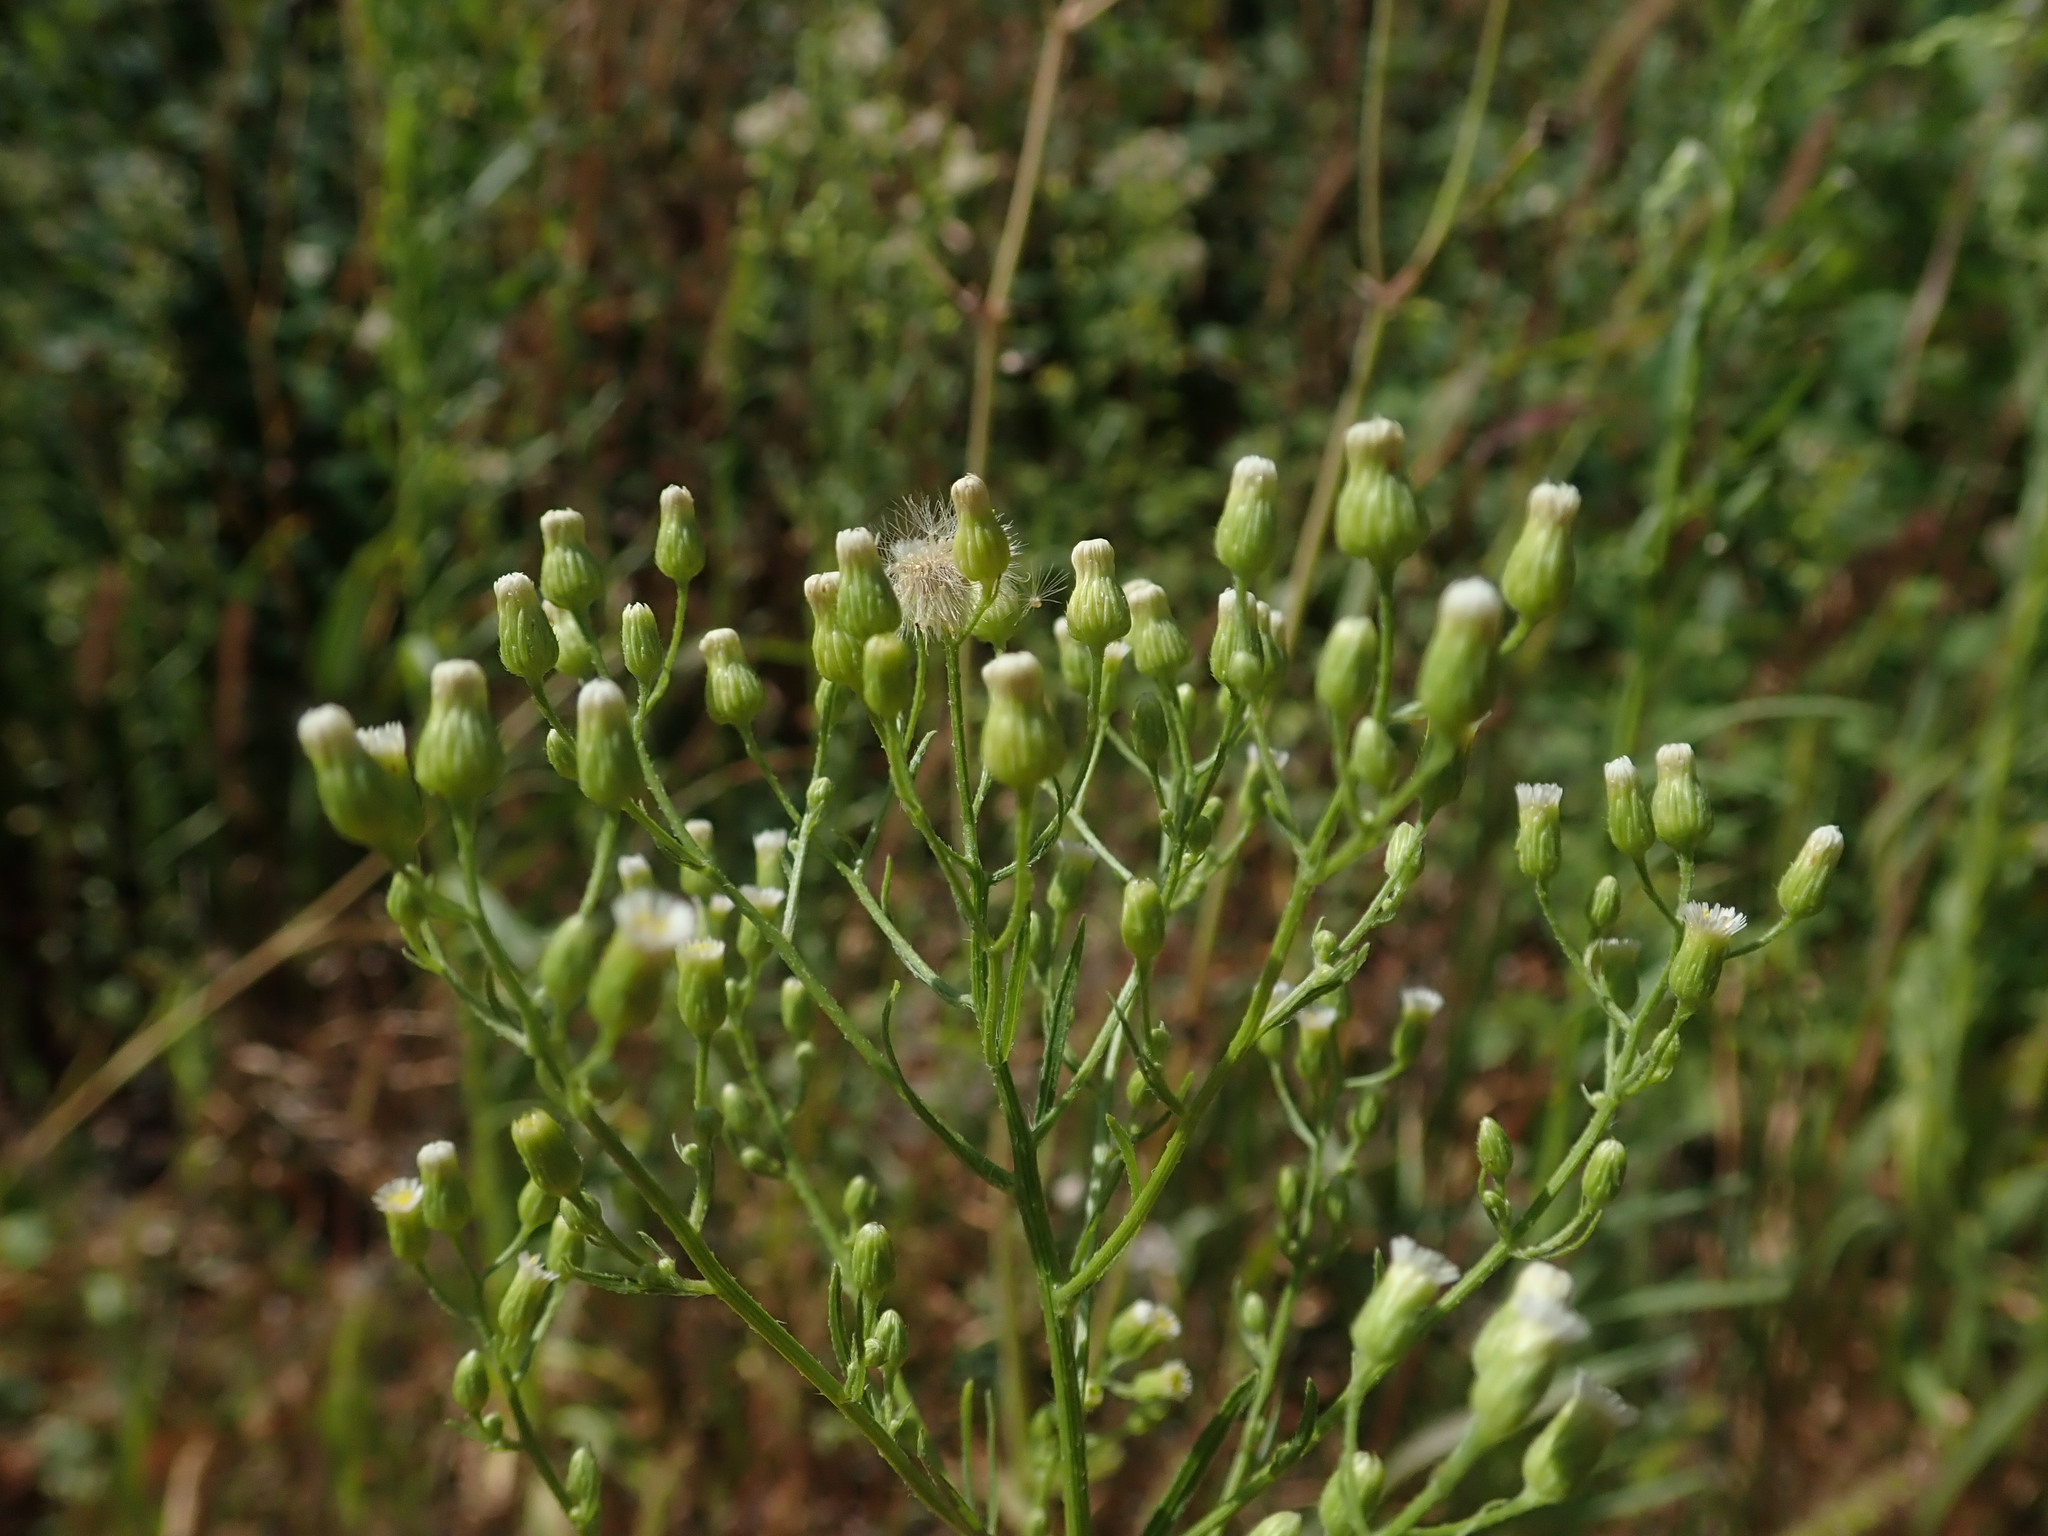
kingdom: Plantae
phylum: Tracheophyta
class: Magnoliopsida
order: Asterales
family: Asteraceae
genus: Erigeron
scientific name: Erigeron canadensis
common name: Canadian fleabane
